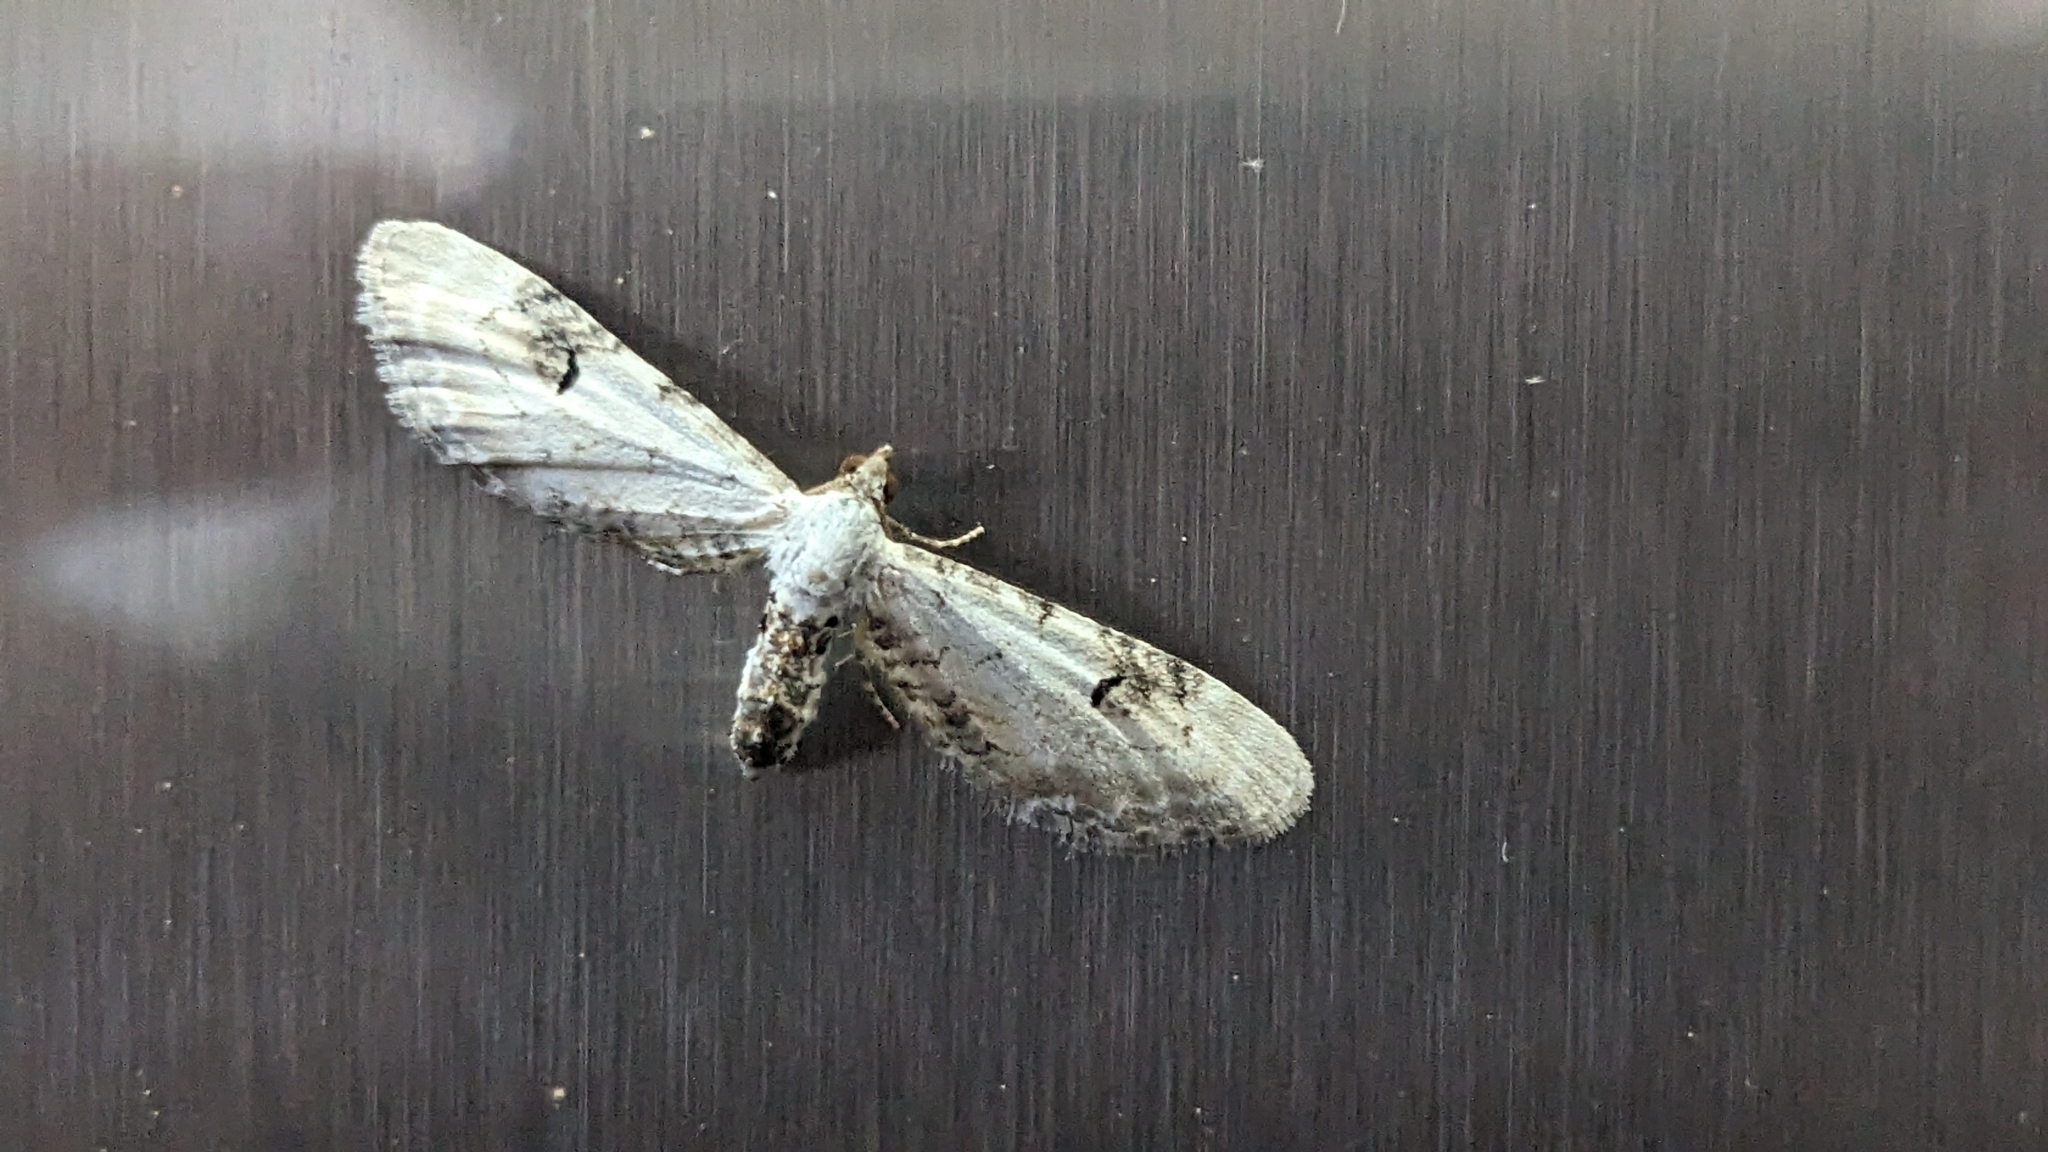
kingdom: Animalia
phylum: Arthropoda
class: Insecta
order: Lepidoptera
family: Geometridae
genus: Eupithecia
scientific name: Eupithecia centaureata
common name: Lime-speck pug
